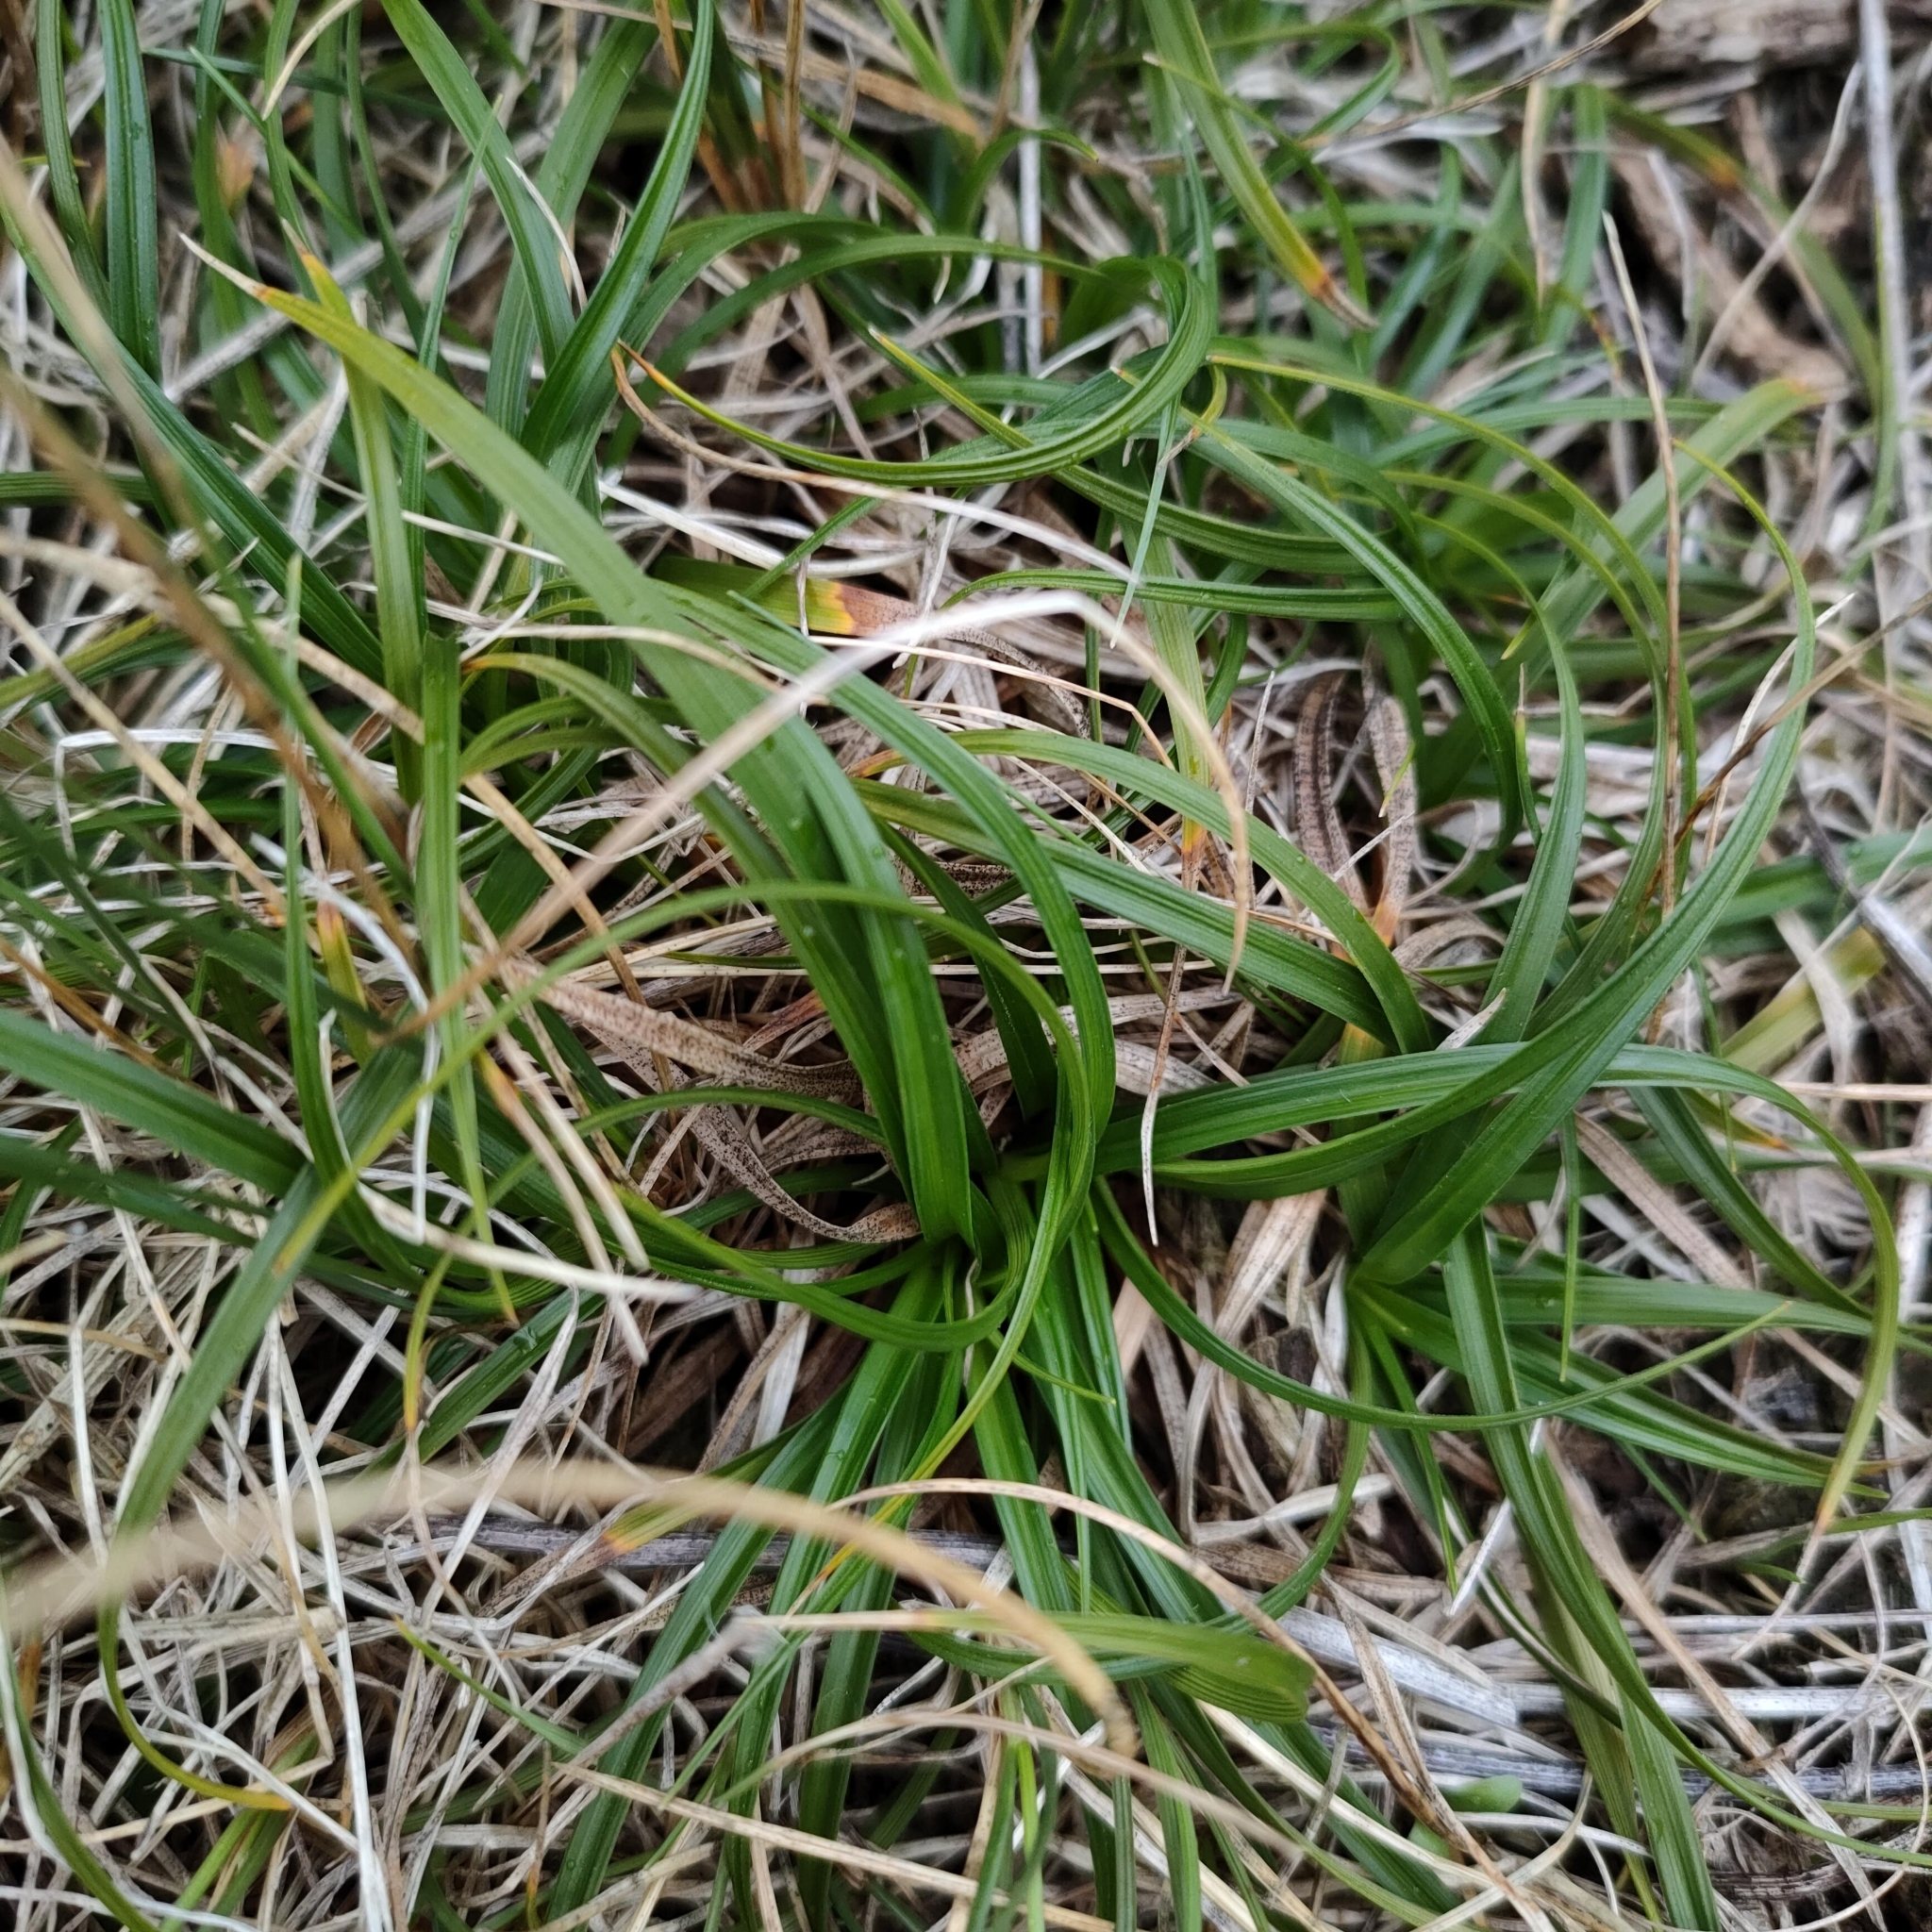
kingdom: Plantae
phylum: Tracheophyta
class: Liliopsida
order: Poales
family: Cyperaceae
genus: Carex
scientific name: Carex breviculmis
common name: Asian shortstem sedge
